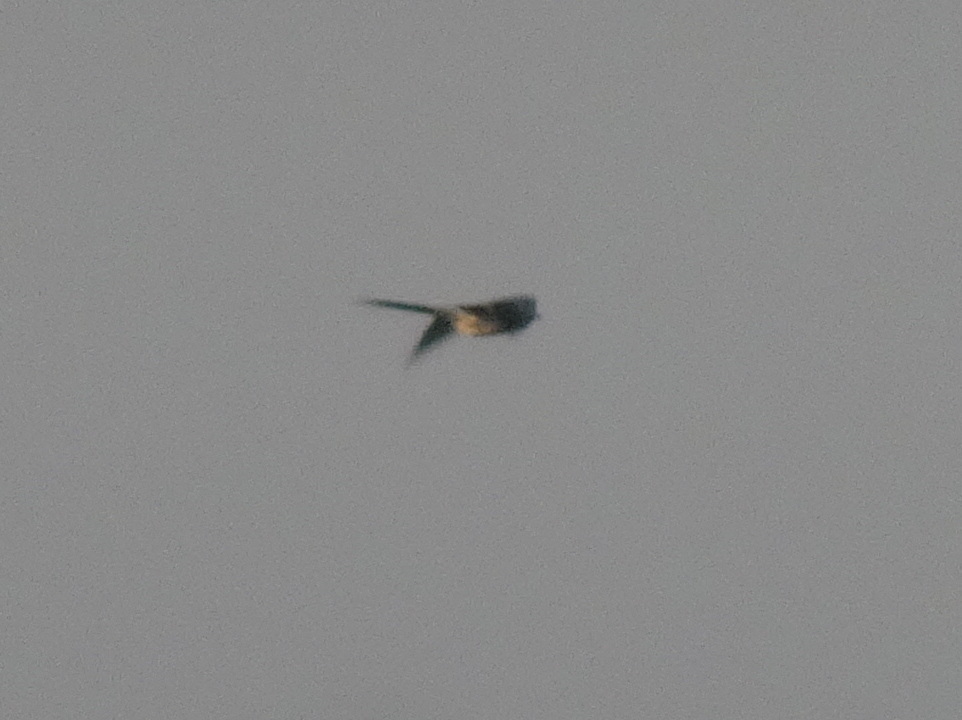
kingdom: Animalia
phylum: Chordata
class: Aves
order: Cuculiformes
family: Cuculidae
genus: Clamator
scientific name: Clamator glandarius
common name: Great spotted cuckoo
